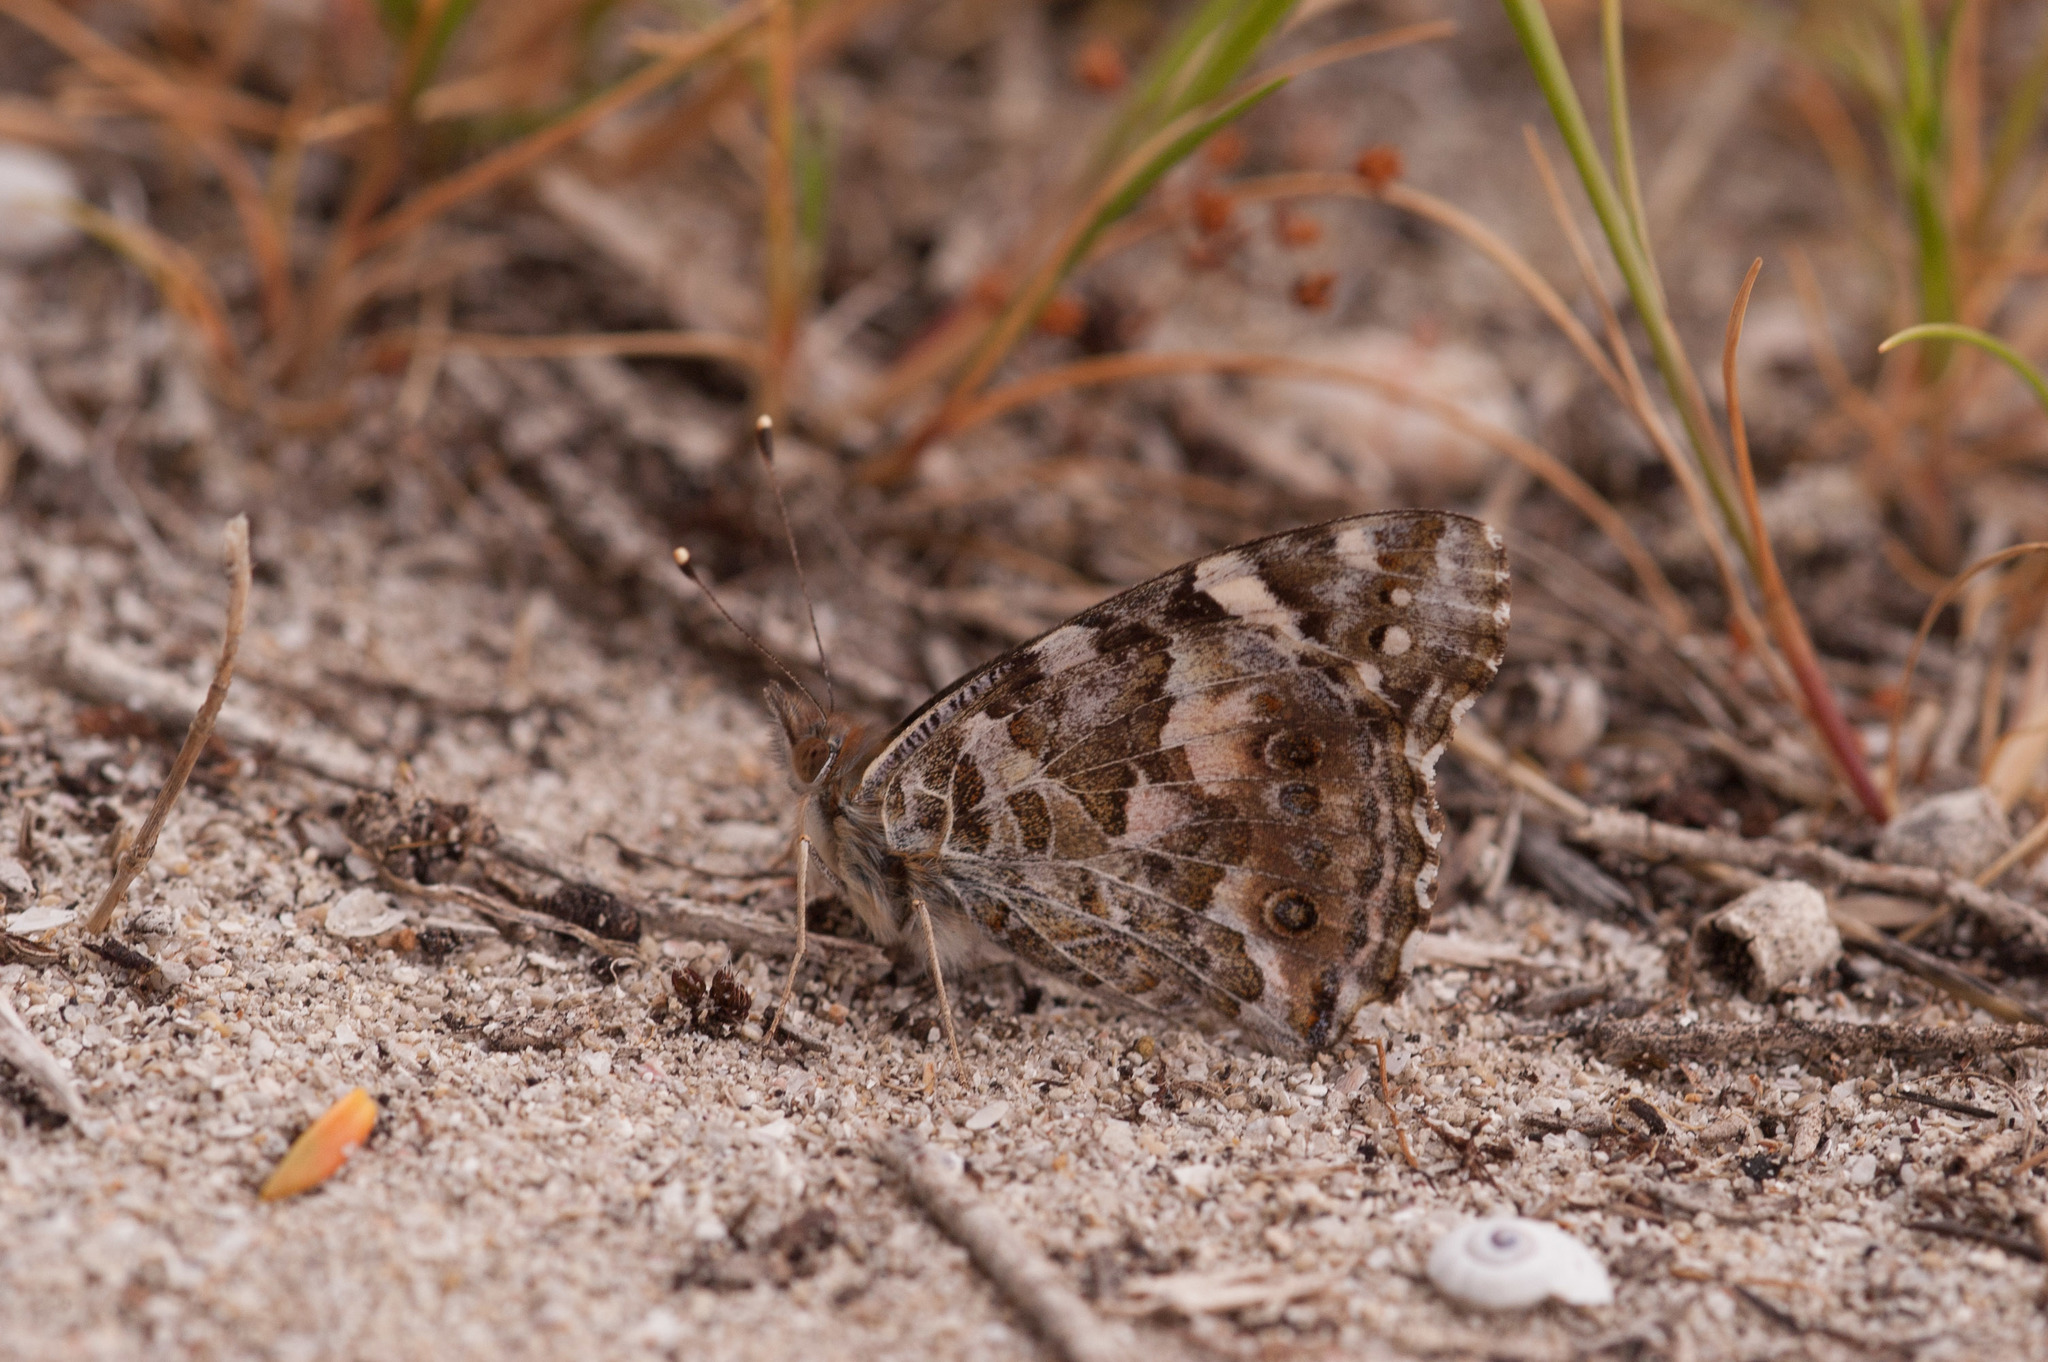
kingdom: Animalia
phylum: Arthropoda
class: Insecta
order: Lepidoptera
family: Nymphalidae
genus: Vanessa
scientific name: Vanessa kershawi
